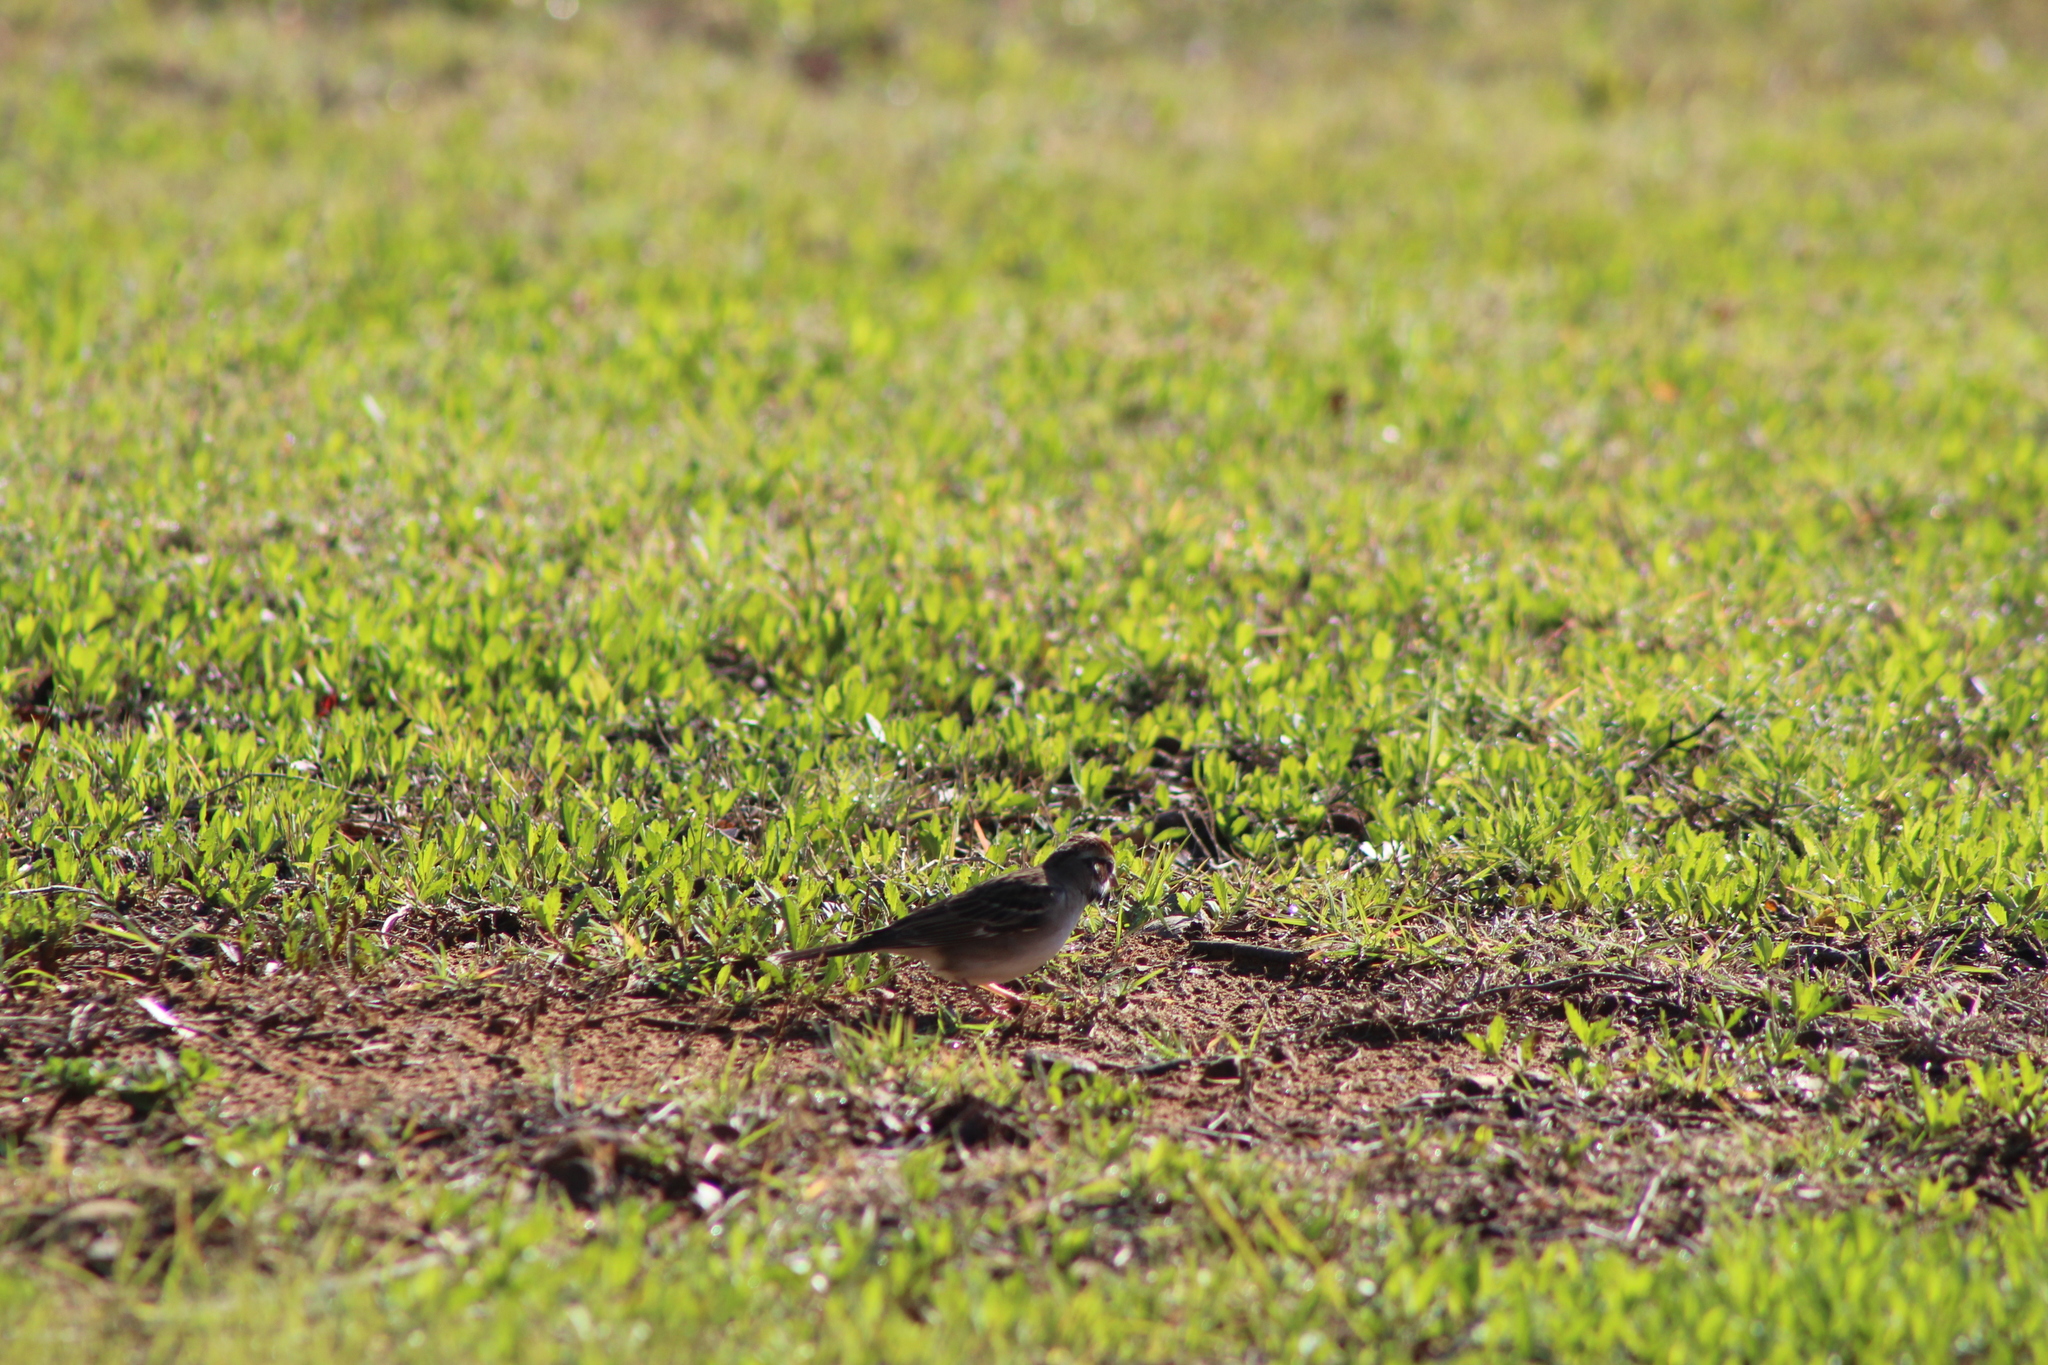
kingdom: Animalia
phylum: Chordata
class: Aves
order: Passeriformes
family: Passerellidae
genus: Chondestes
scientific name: Chondestes grammacus
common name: Lark sparrow
